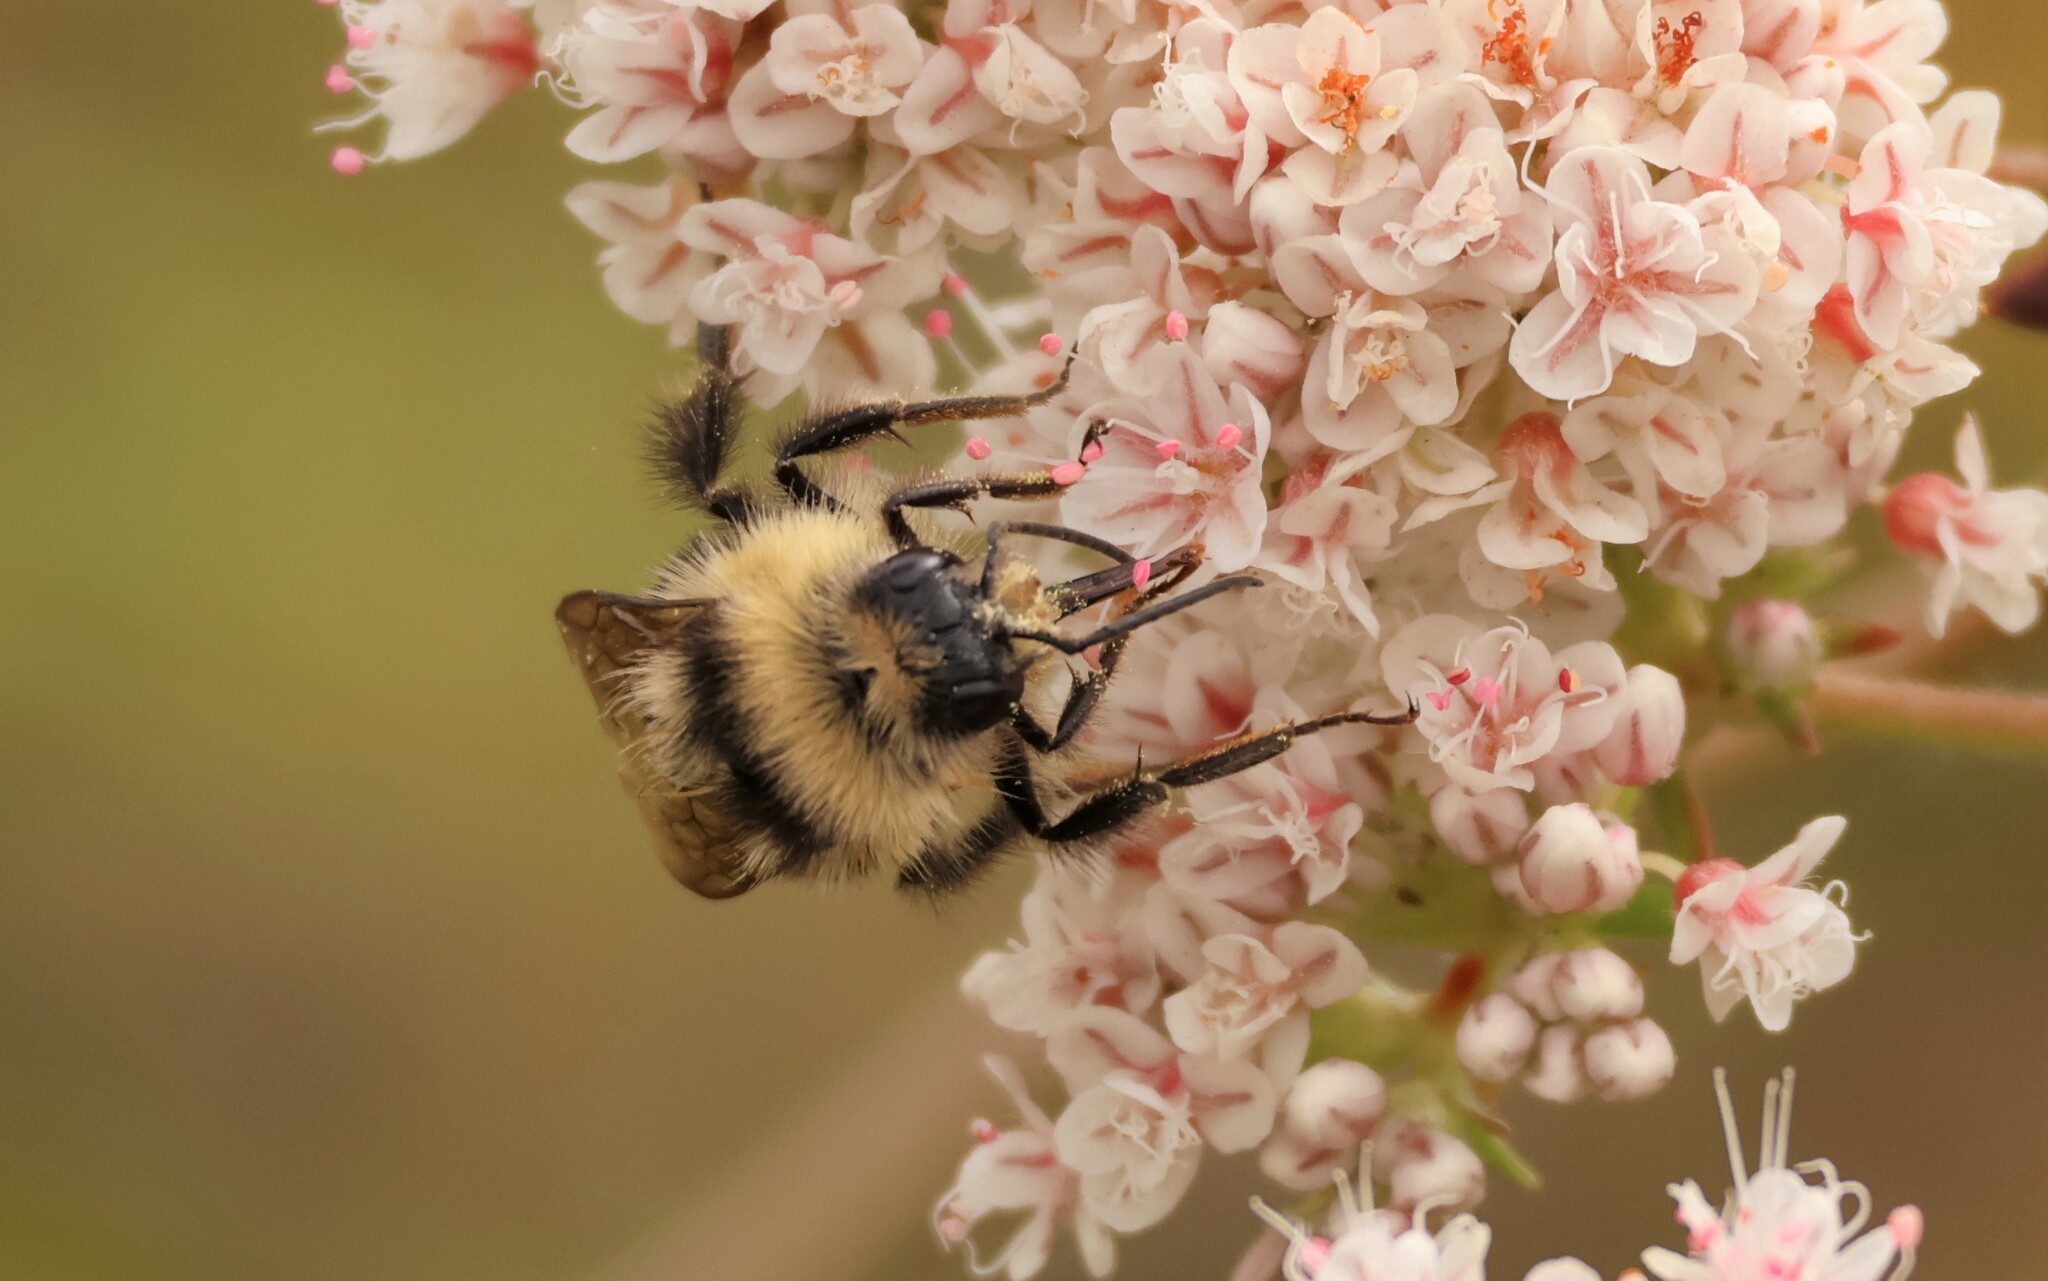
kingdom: Animalia
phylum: Arthropoda
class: Insecta
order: Hymenoptera
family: Apidae
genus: Bombus
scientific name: Bombus melanopygus
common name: Black tail bumble bee
